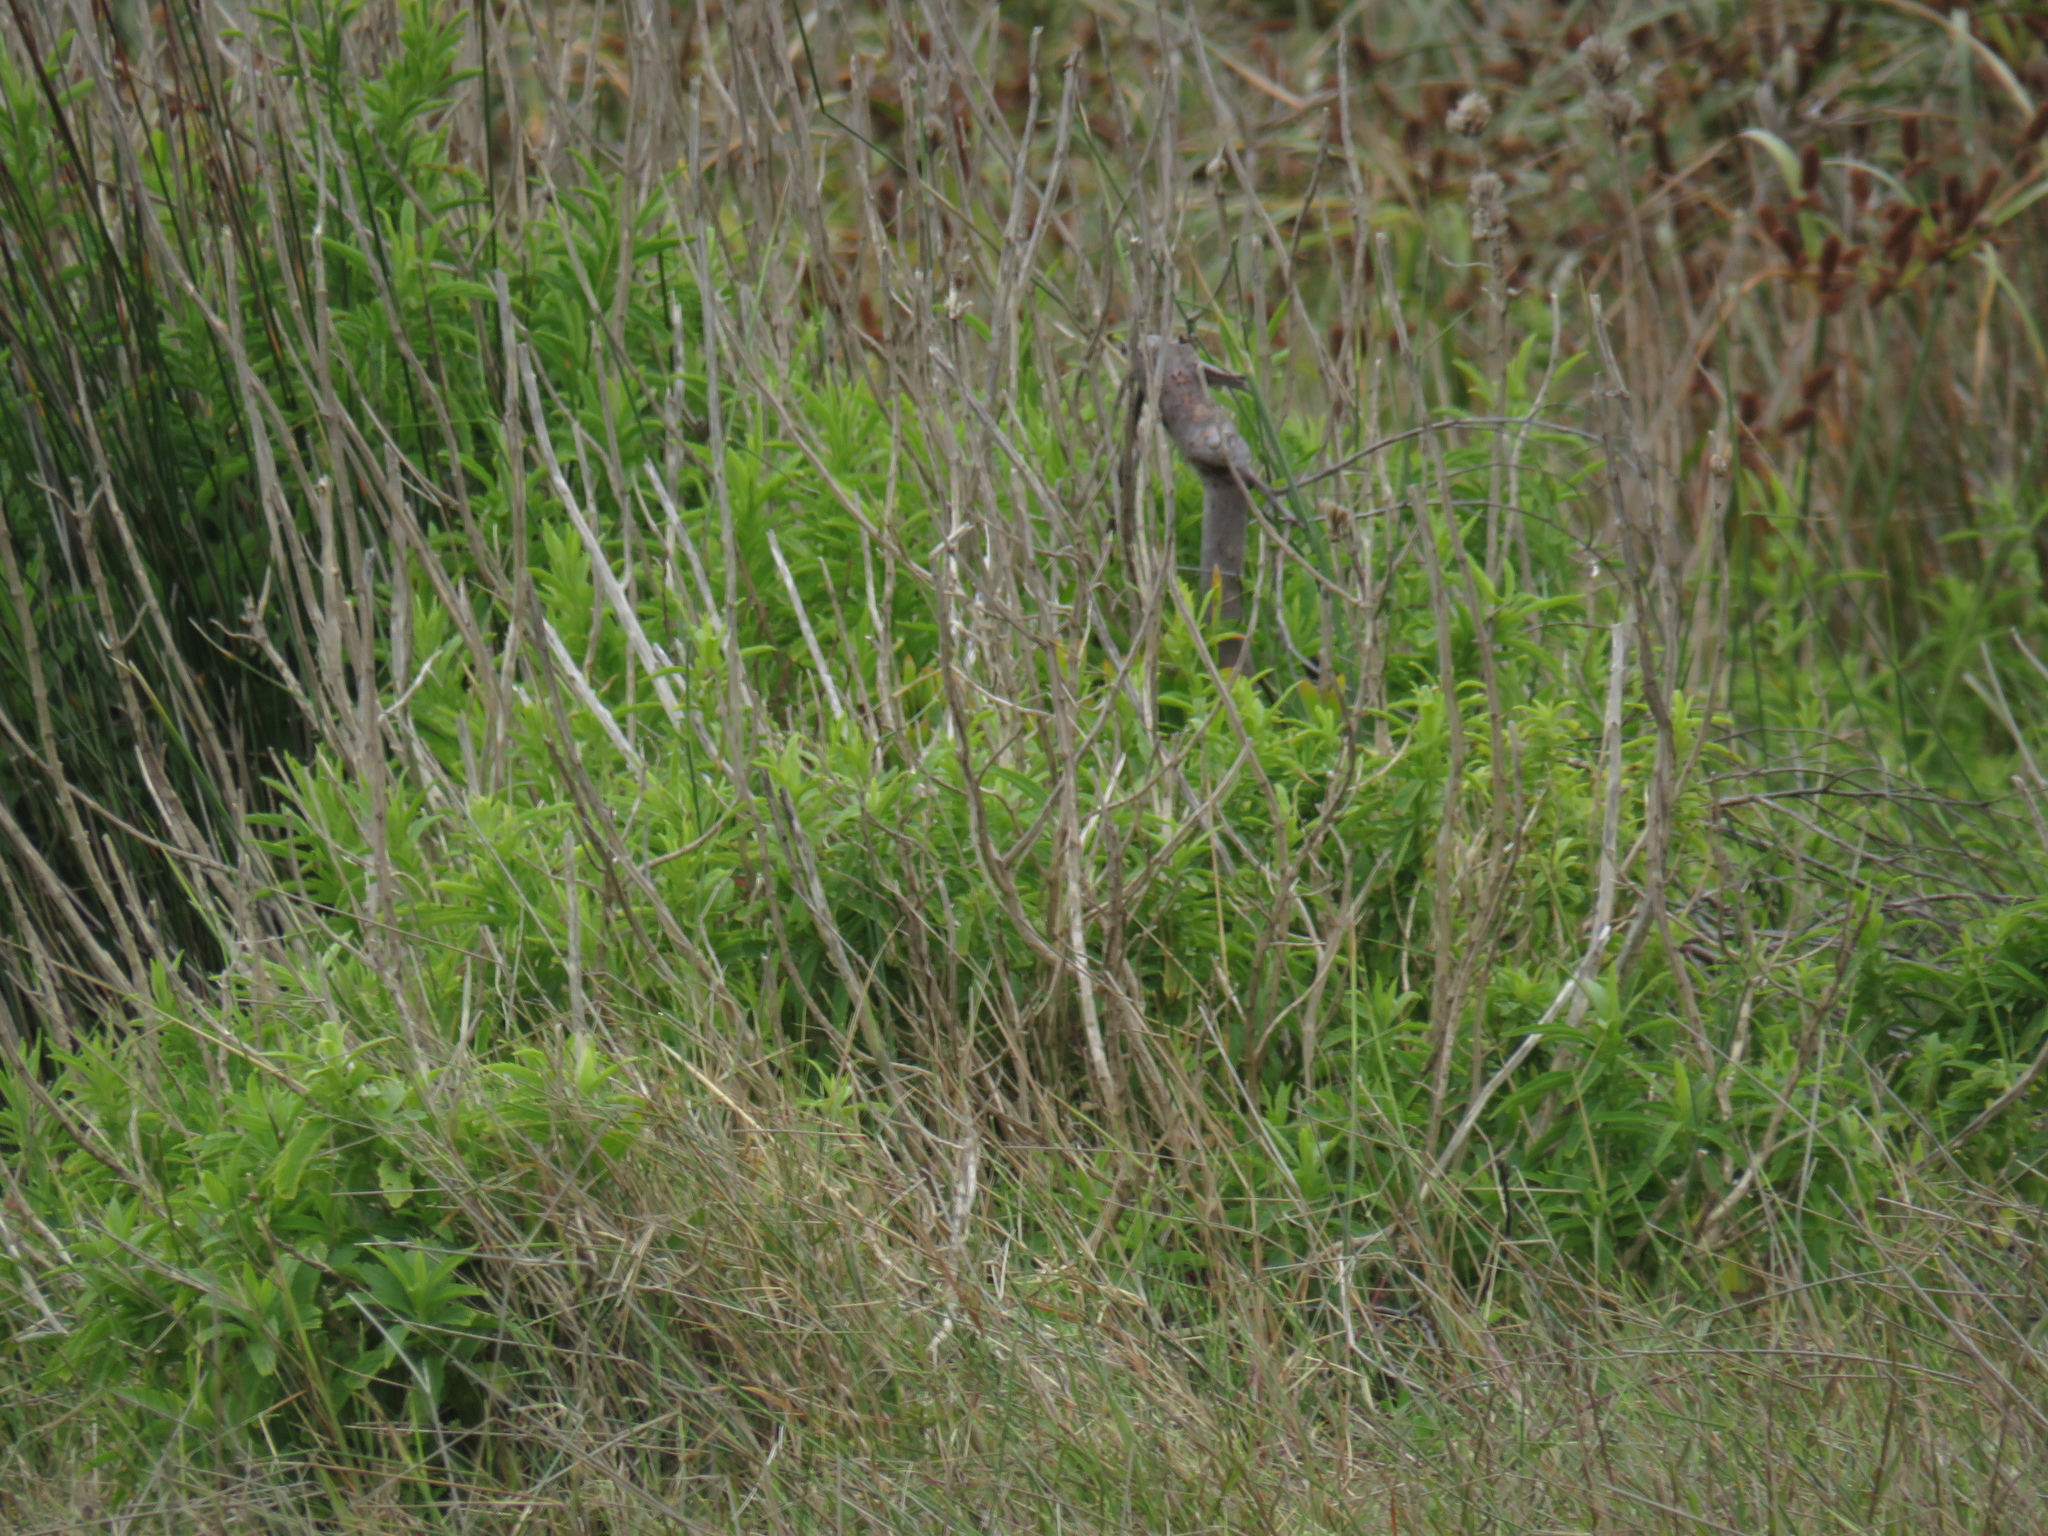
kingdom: Plantae
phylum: Tracheophyta
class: Magnoliopsida
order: Lamiales
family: Lamiaceae
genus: Leonotis
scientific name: Leonotis leonurus
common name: Lion's ear
